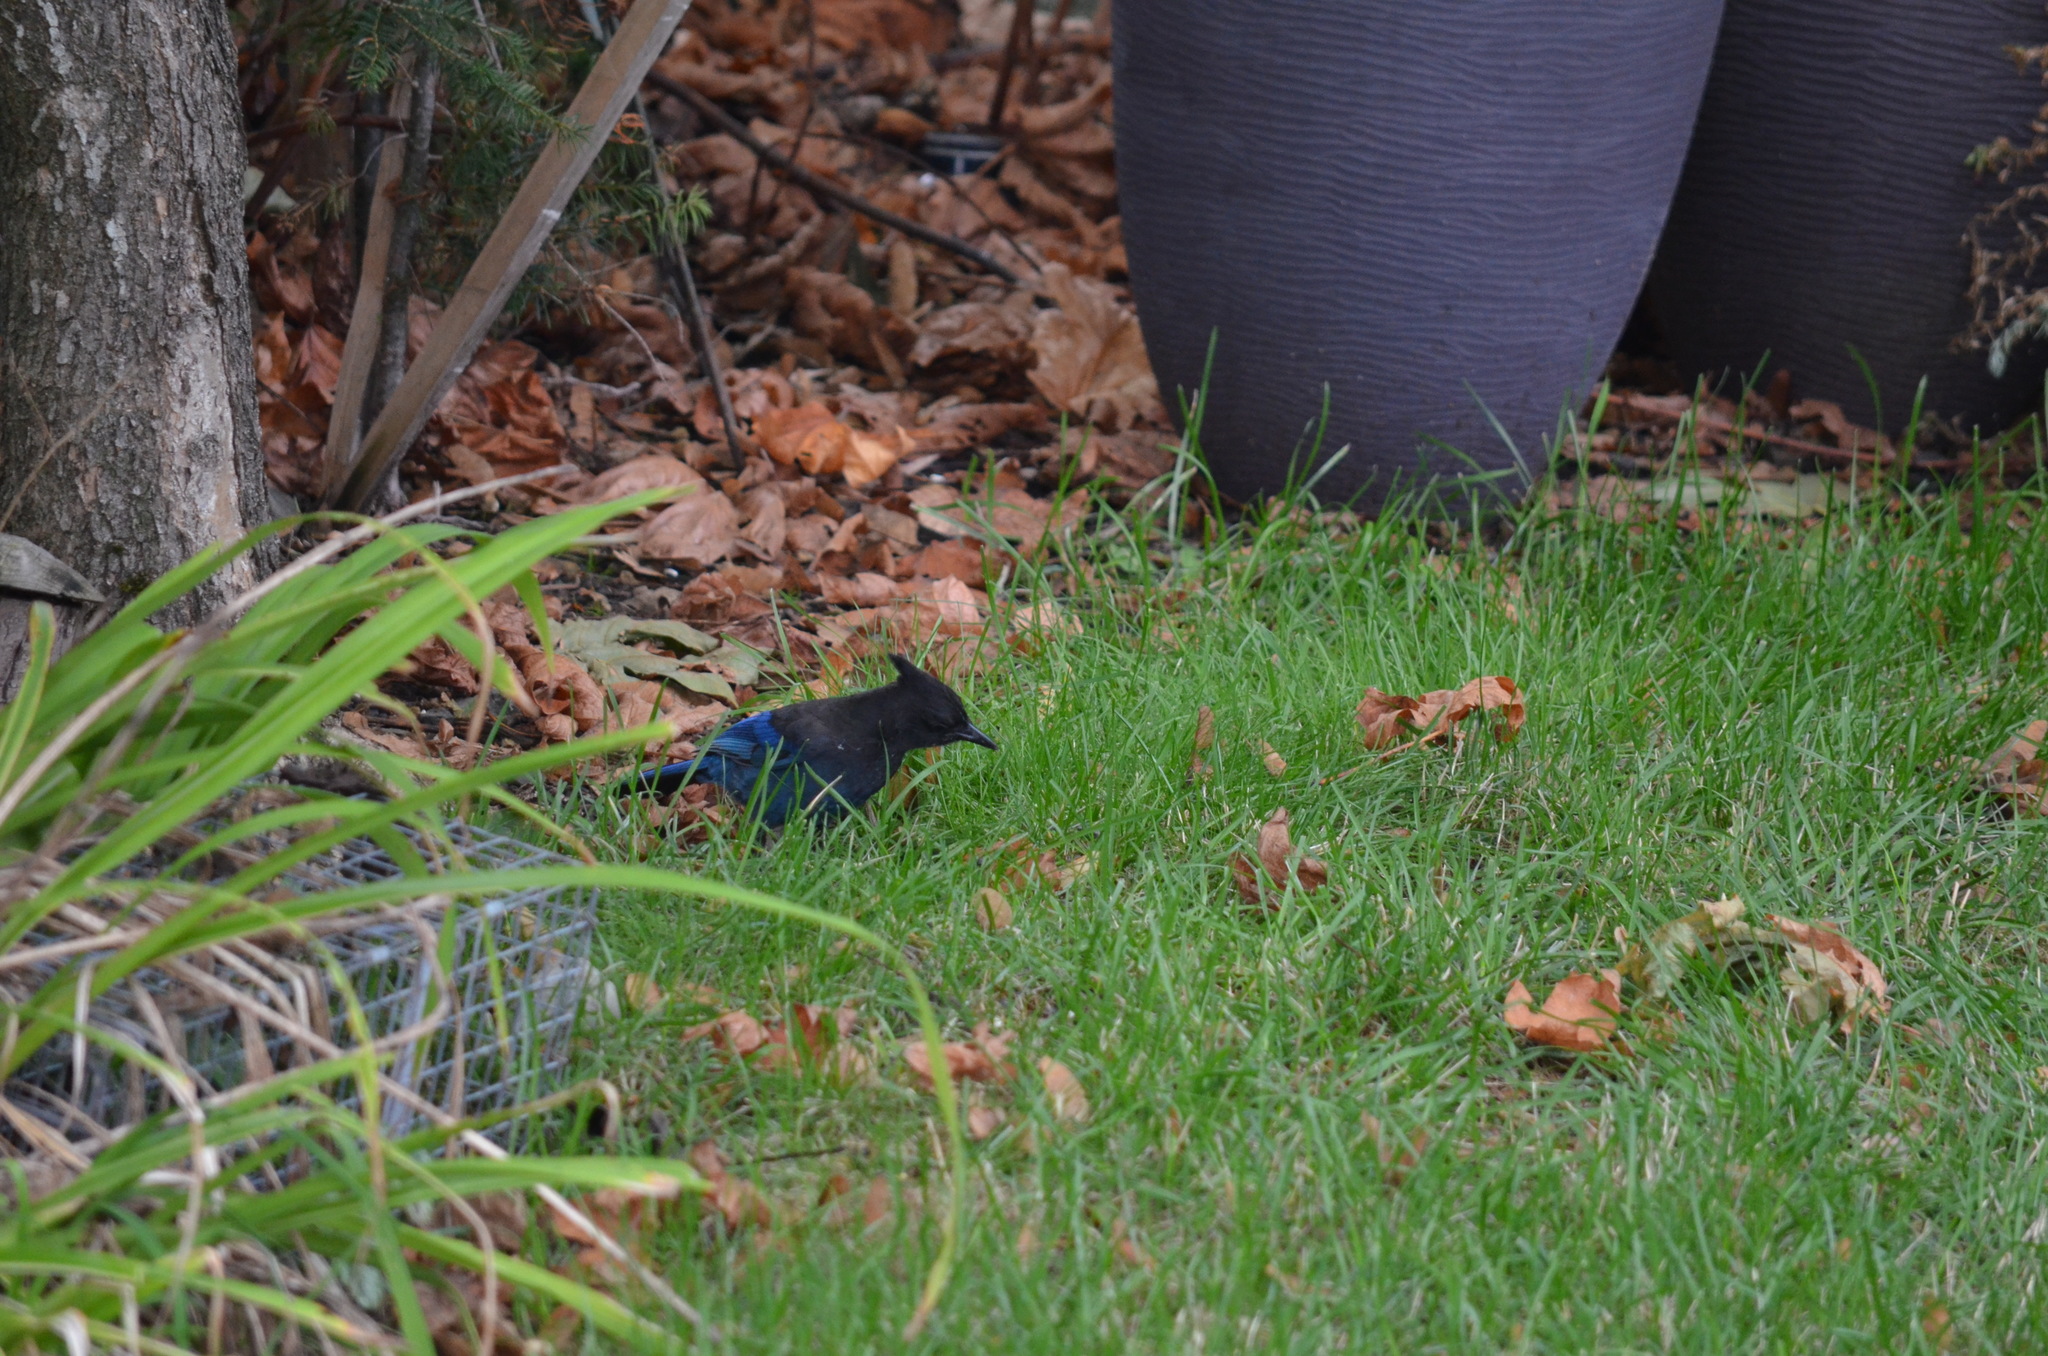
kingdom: Animalia
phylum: Chordata
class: Aves
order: Passeriformes
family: Corvidae
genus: Cyanocitta
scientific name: Cyanocitta stelleri
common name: Steller's jay
